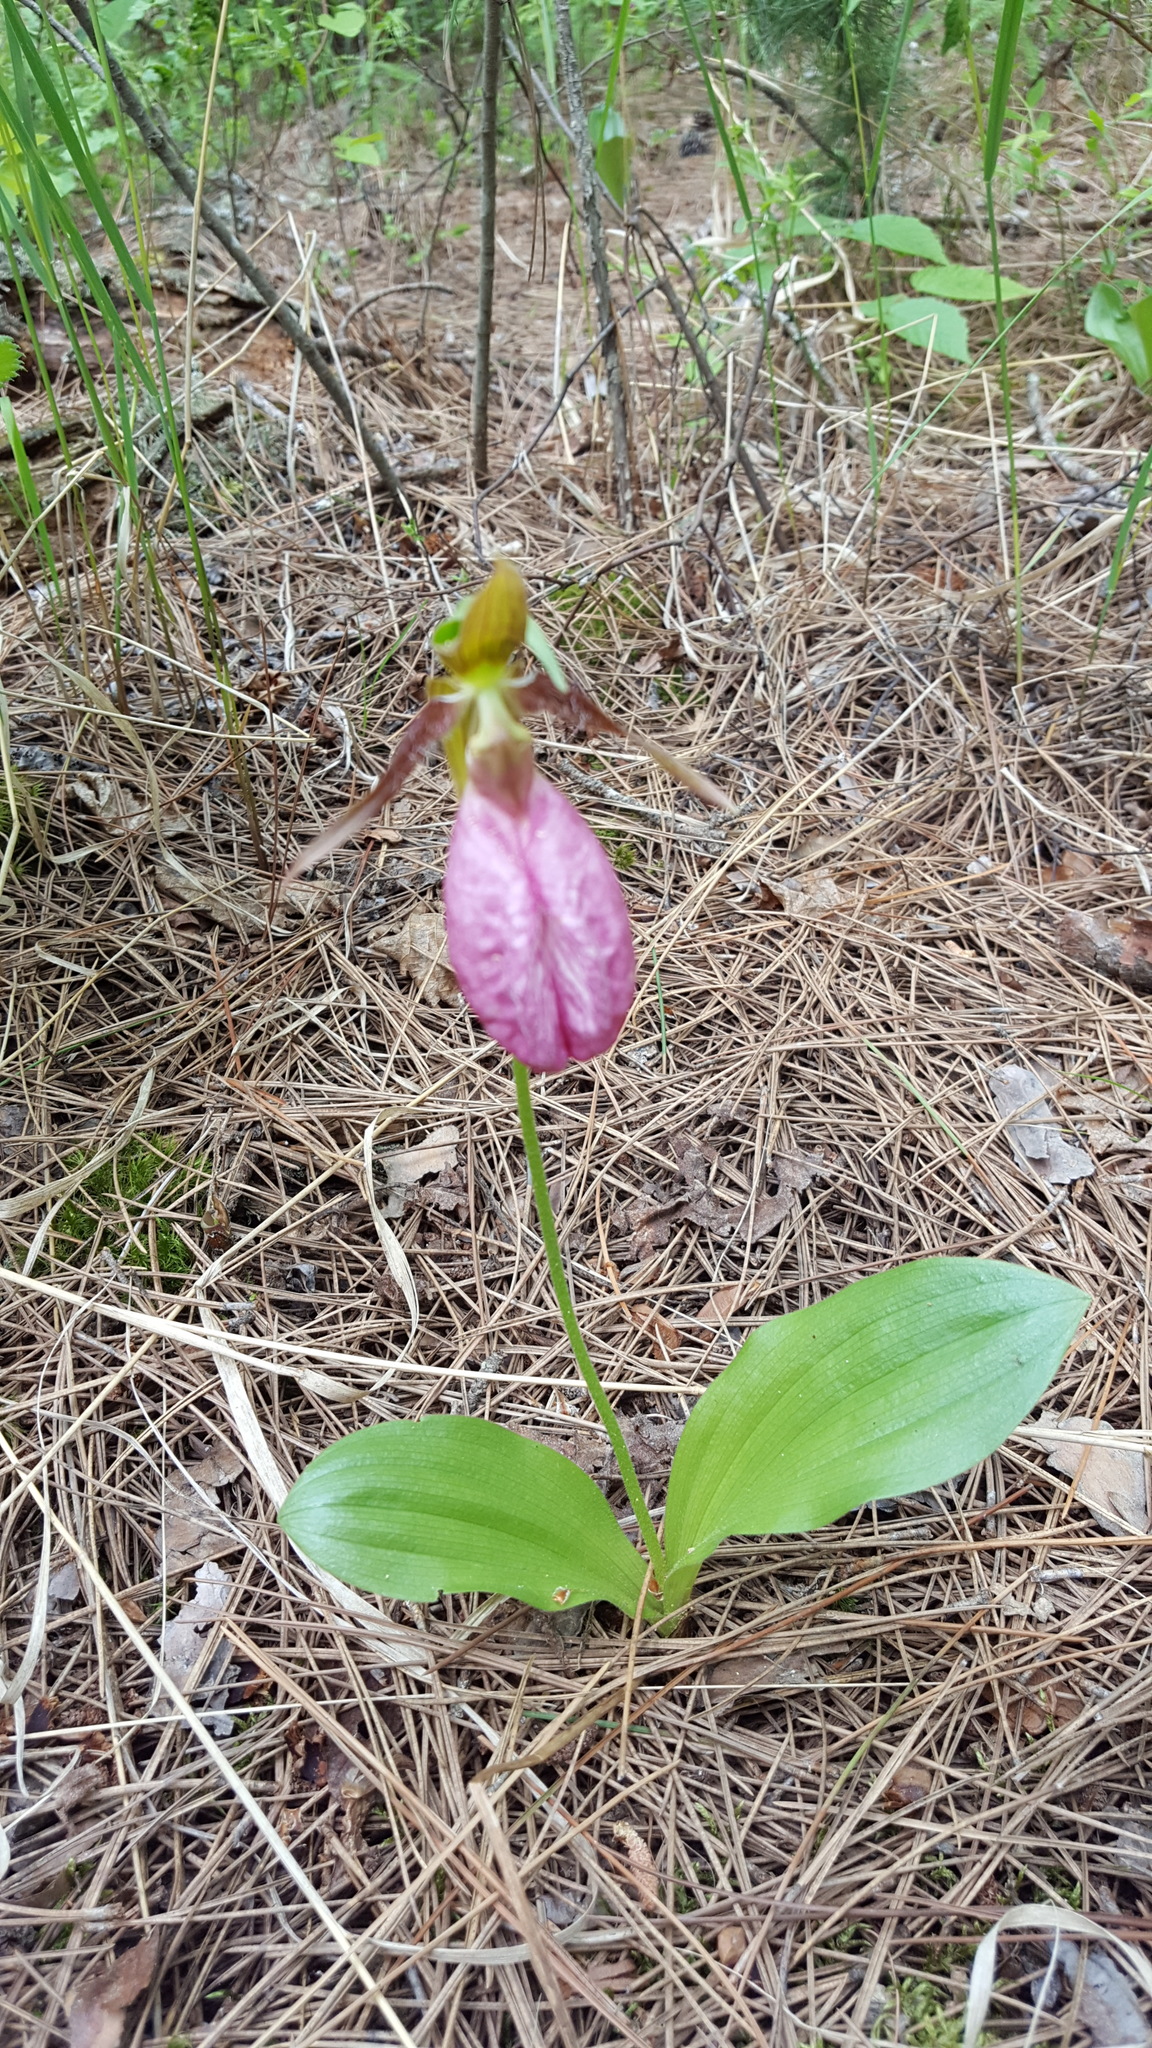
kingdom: Plantae
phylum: Tracheophyta
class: Liliopsida
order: Asparagales
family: Orchidaceae
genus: Cypripedium
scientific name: Cypripedium acaule
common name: Pink lady's-slipper
